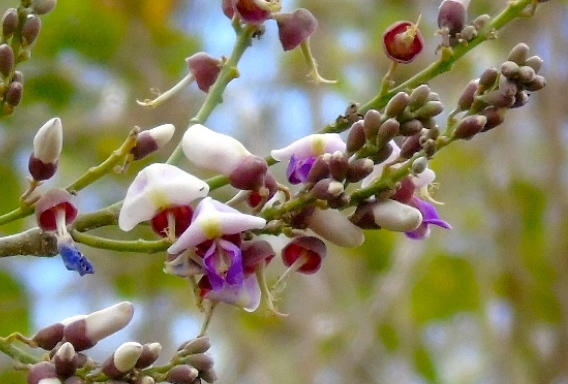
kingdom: Plantae
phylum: Tracheophyta
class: Magnoliopsida
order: Fabales
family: Fabaceae
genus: Lonchocarpus
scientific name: Lonchocarpus lanceolatus
